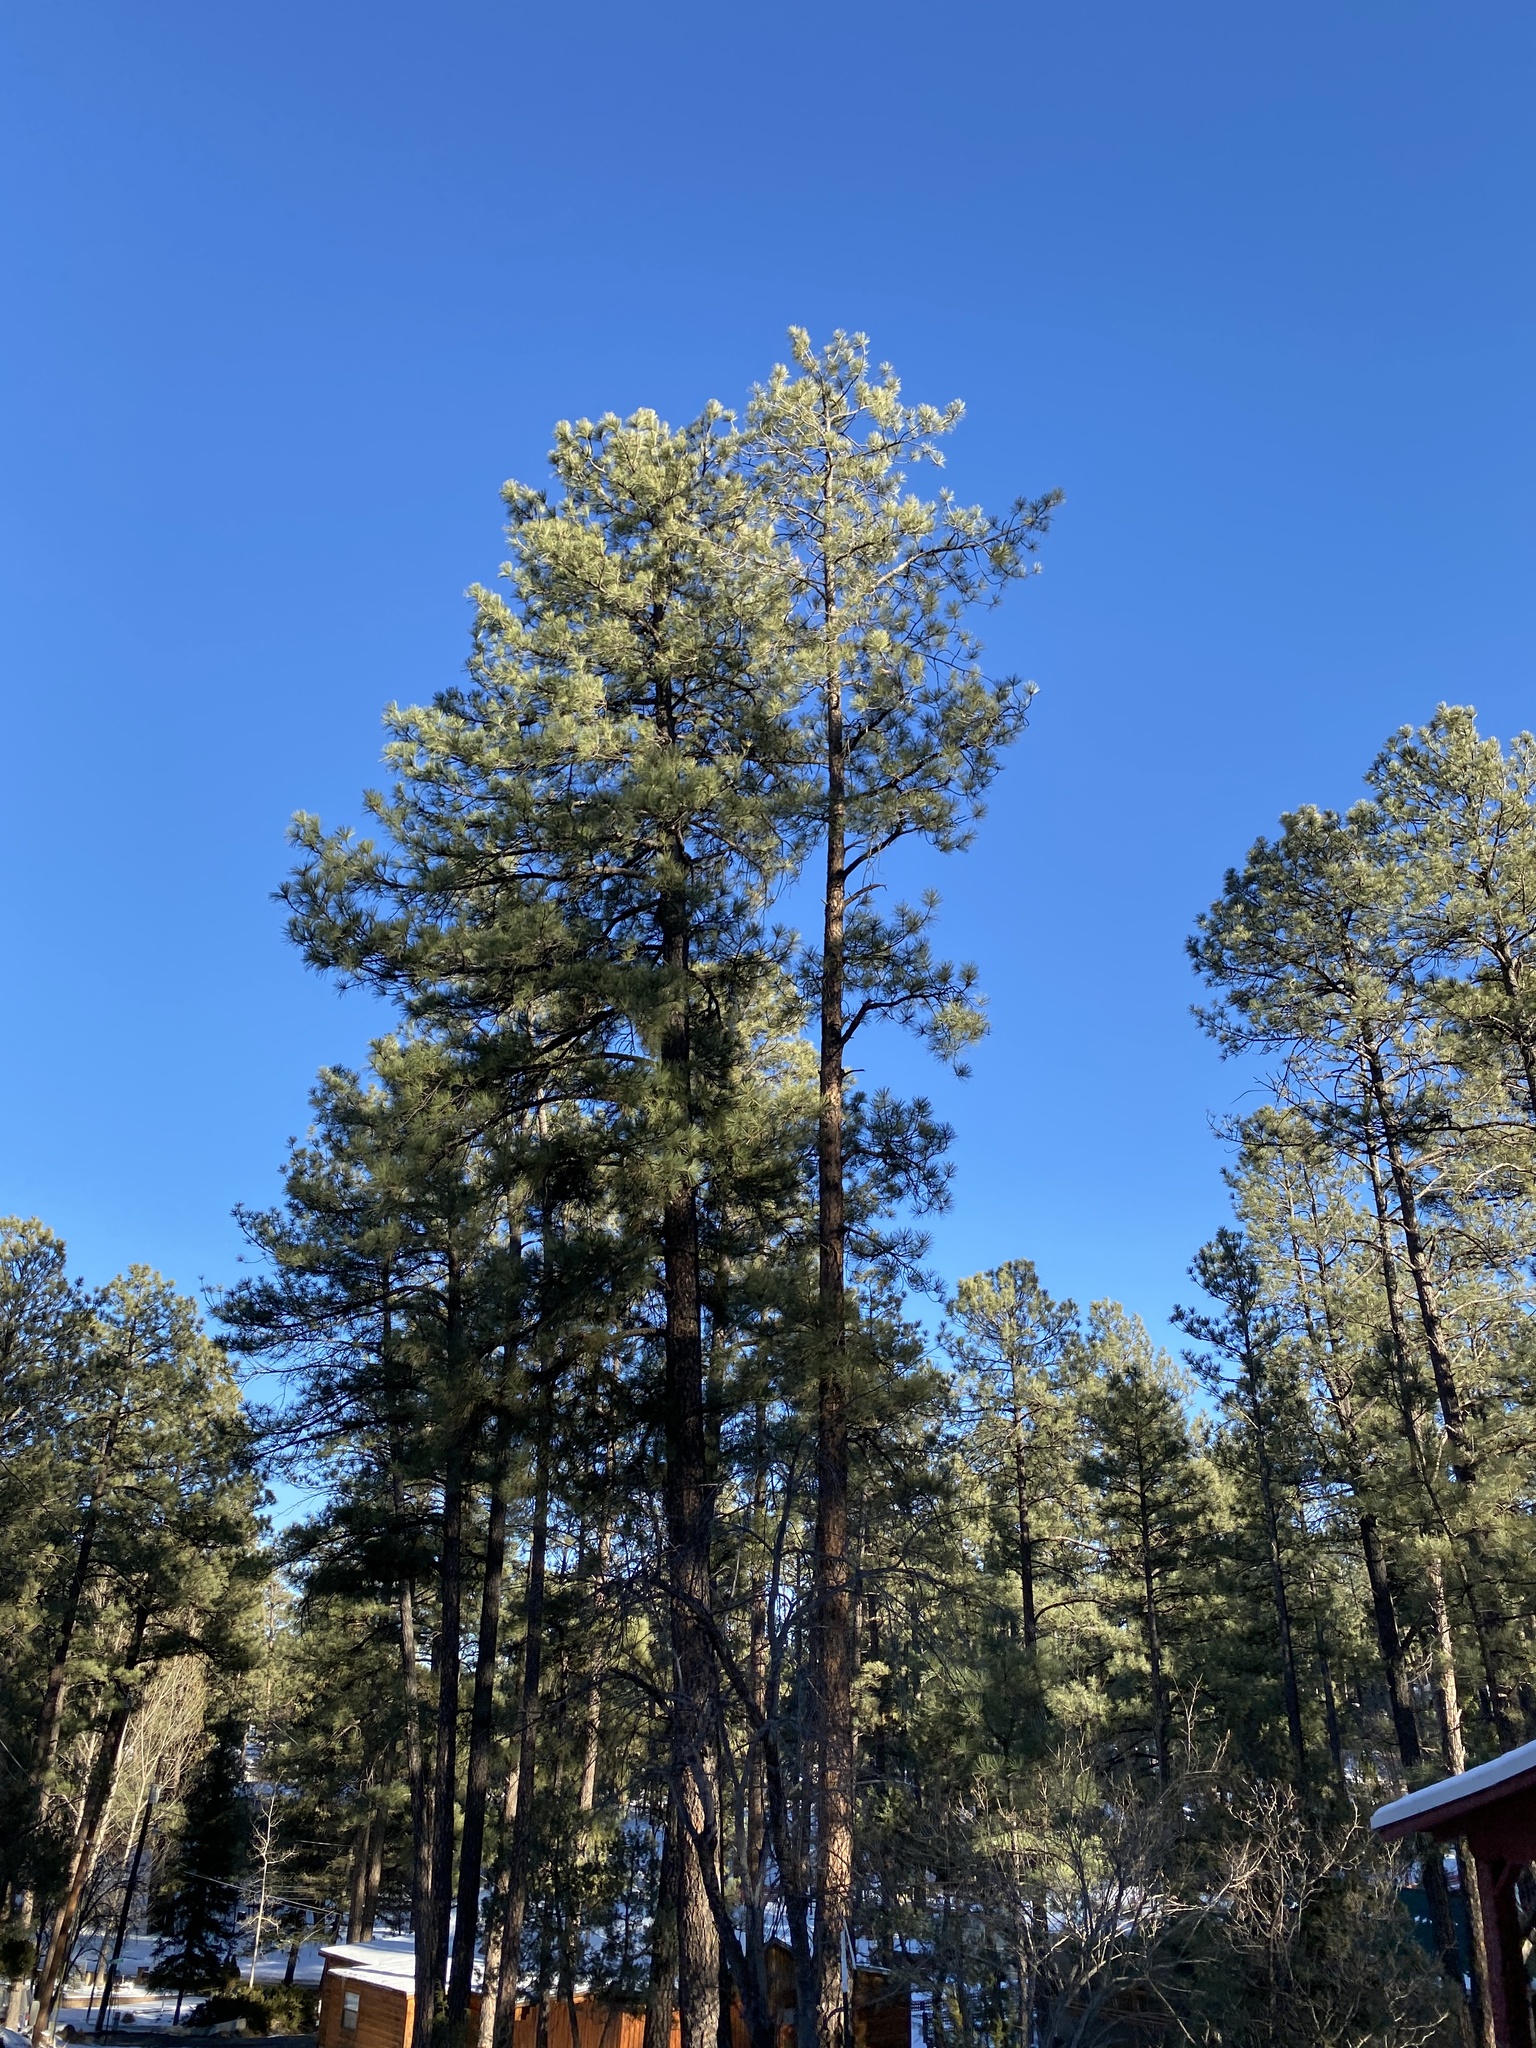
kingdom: Plantae
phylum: Tracheophyta
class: Pinopsida
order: Pinales
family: Pinaceae
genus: Pinus
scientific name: Pinus ponderosa
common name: Western yellow-pine
